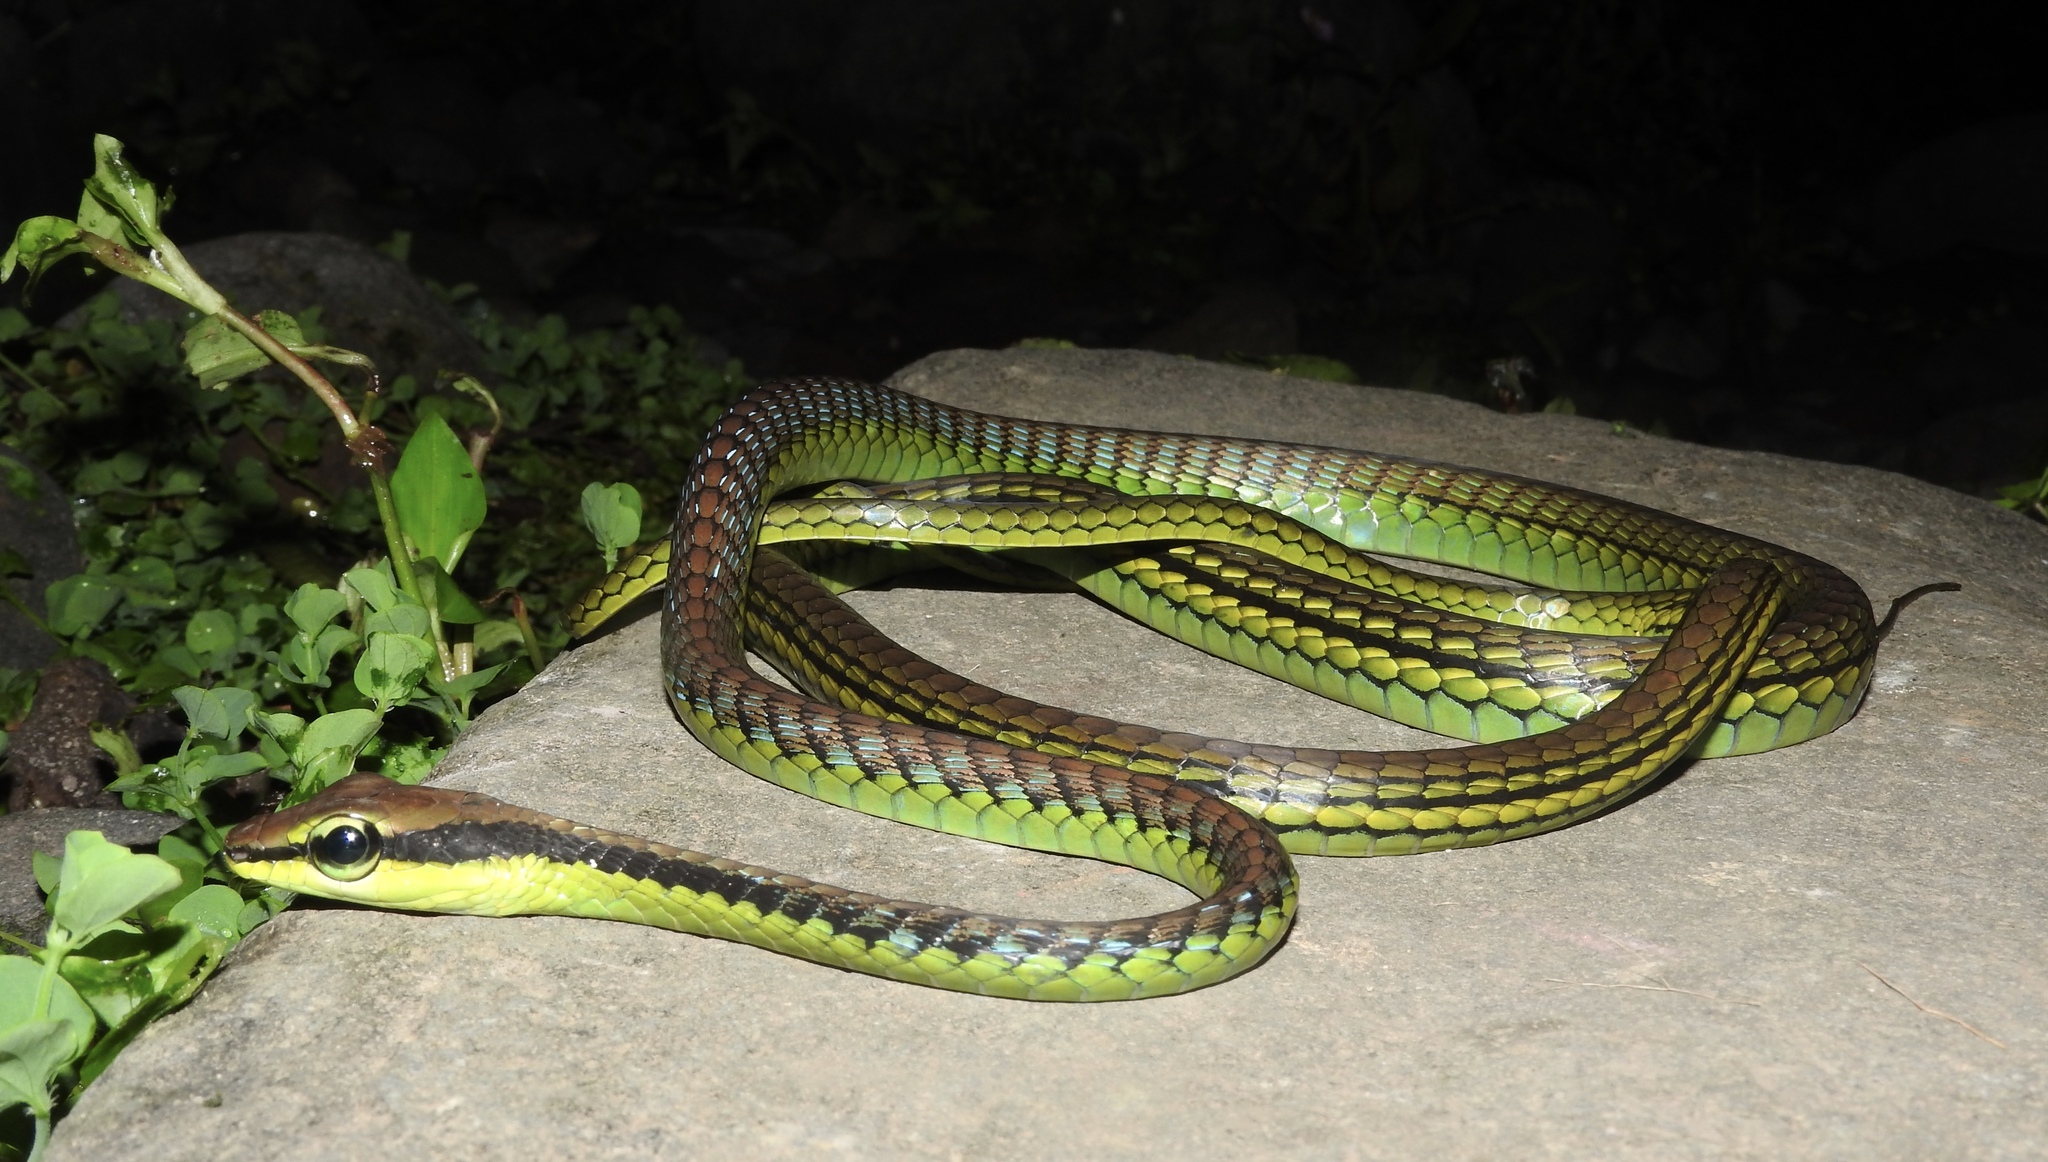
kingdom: Animalia
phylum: Chordata
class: Squamata
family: Colubridae
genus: Dendrelaphis
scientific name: Dendrelaphis formosus
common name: Elegant bronzeback
